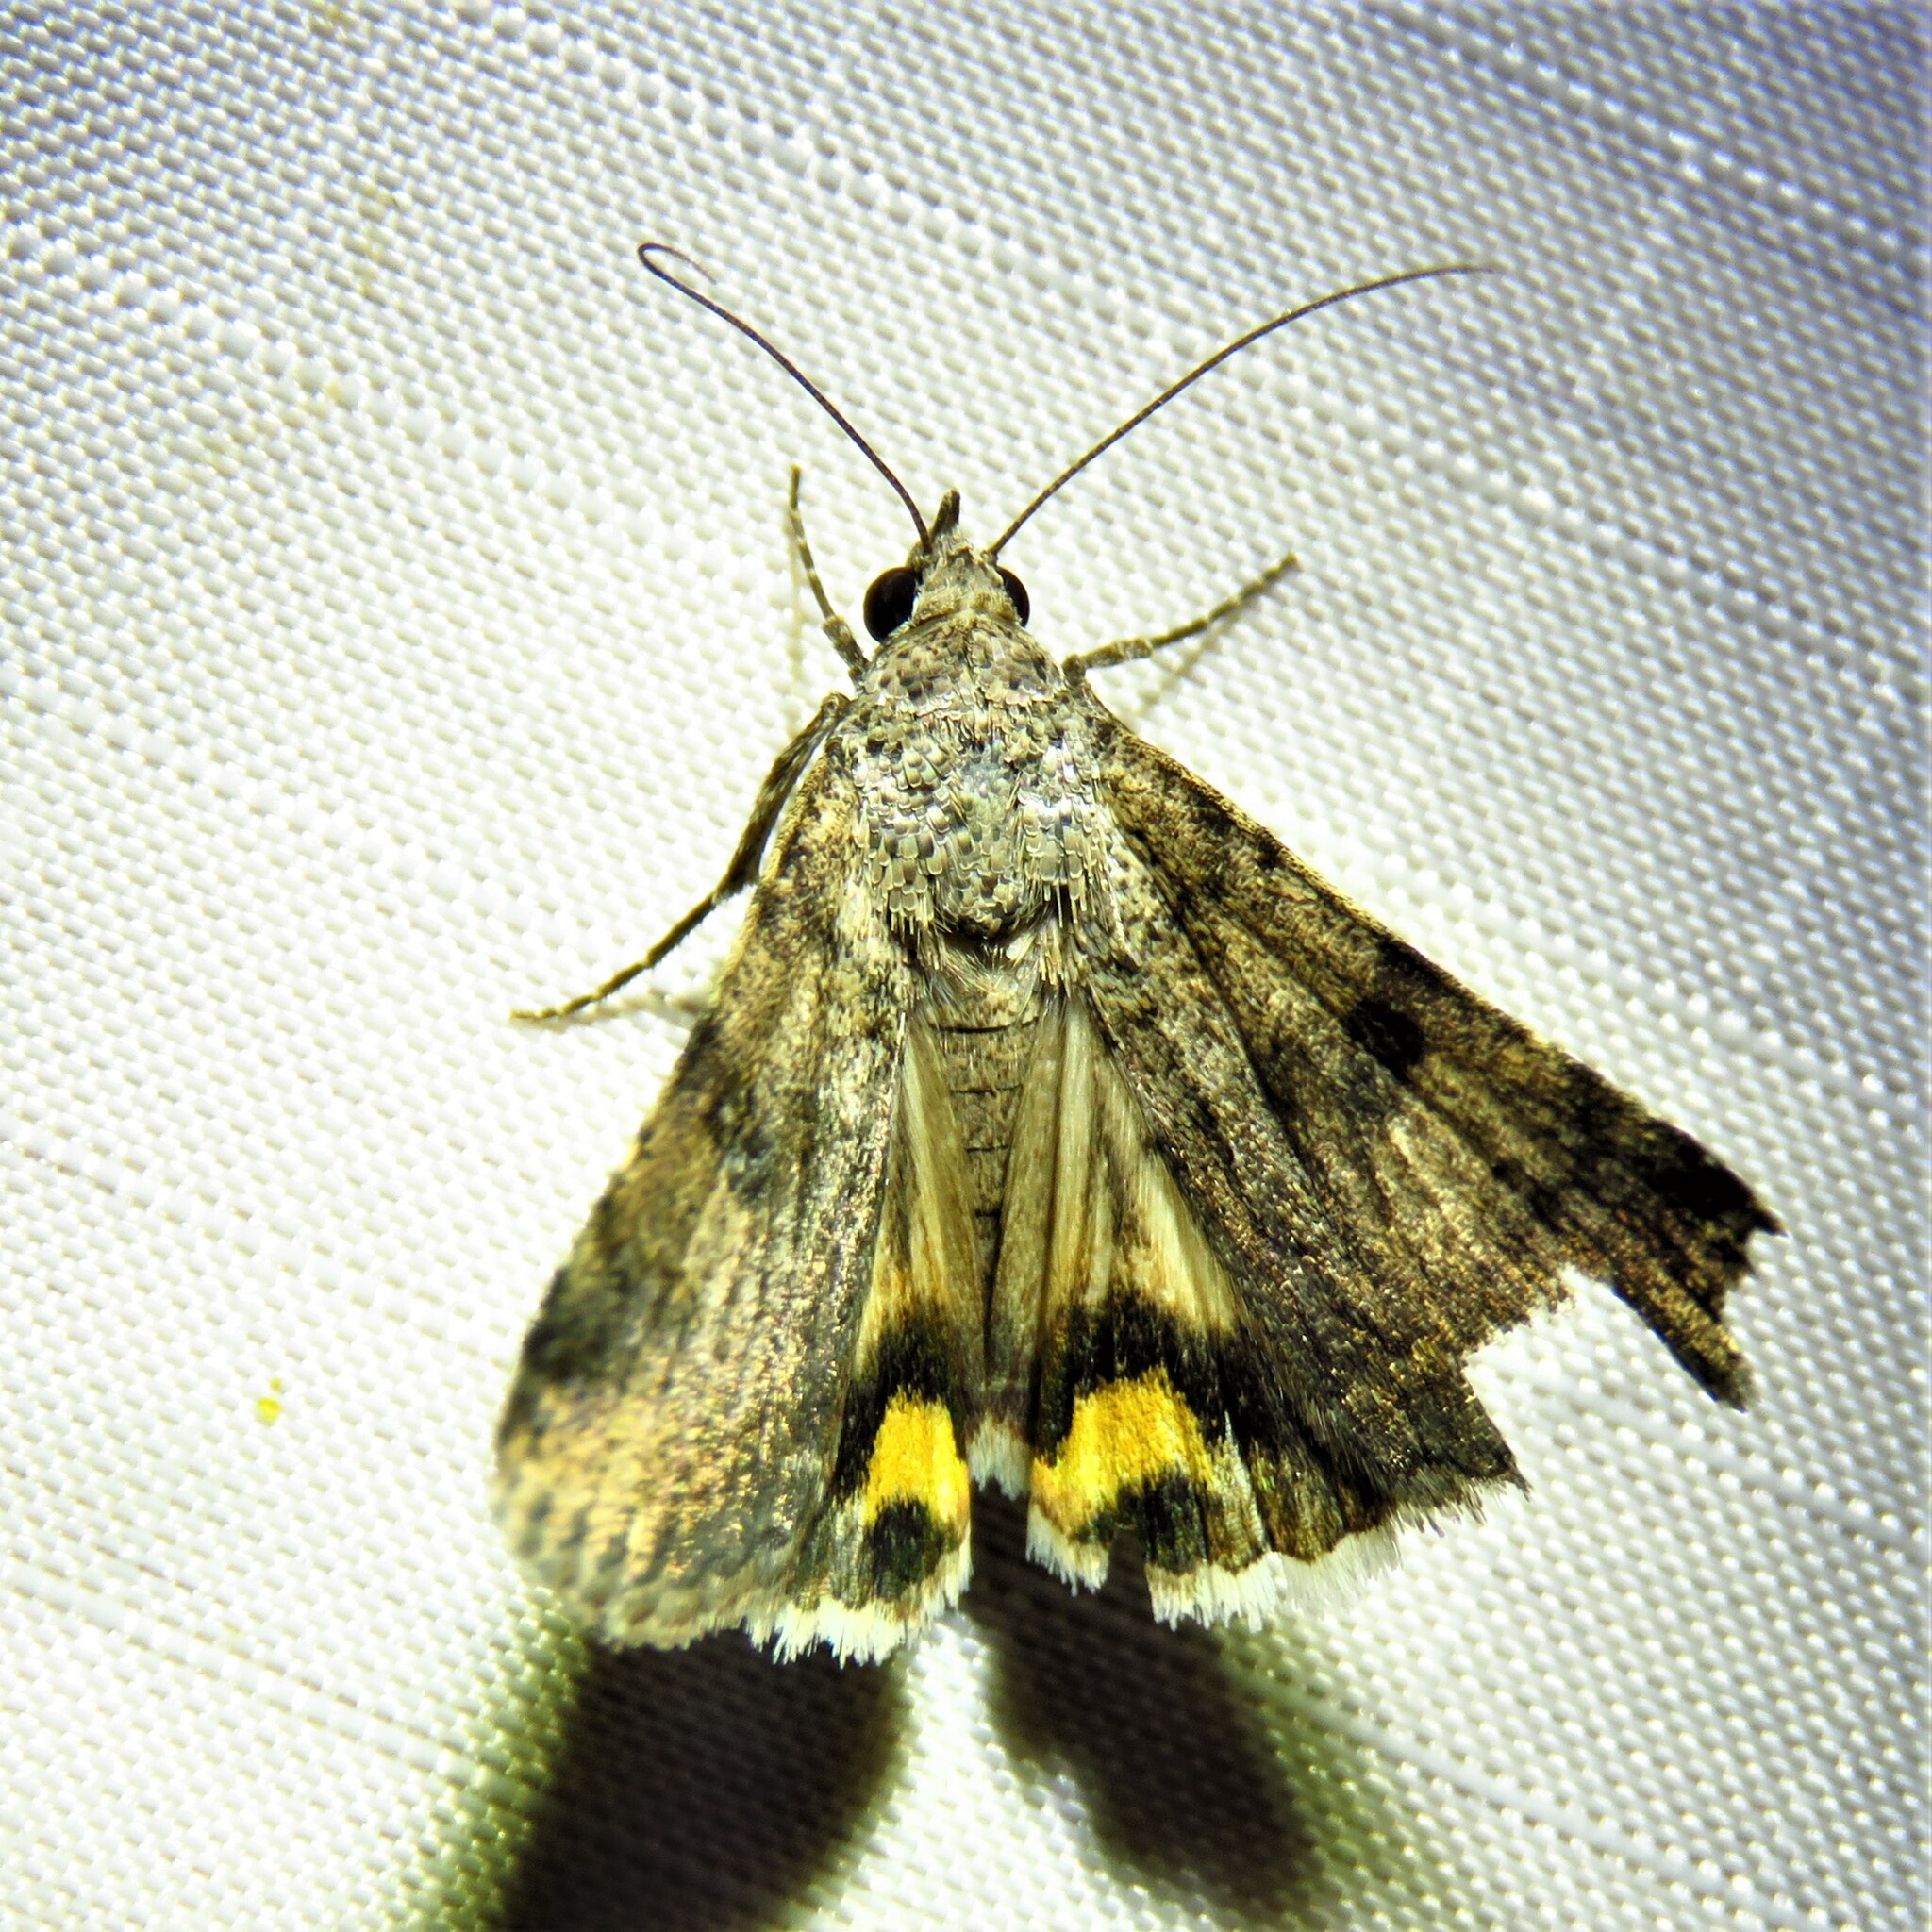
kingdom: Animalia
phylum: Arthropoda
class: Insecta
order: Lepidoptera
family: Erebidae
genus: Bulia
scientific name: Bulia deducta
